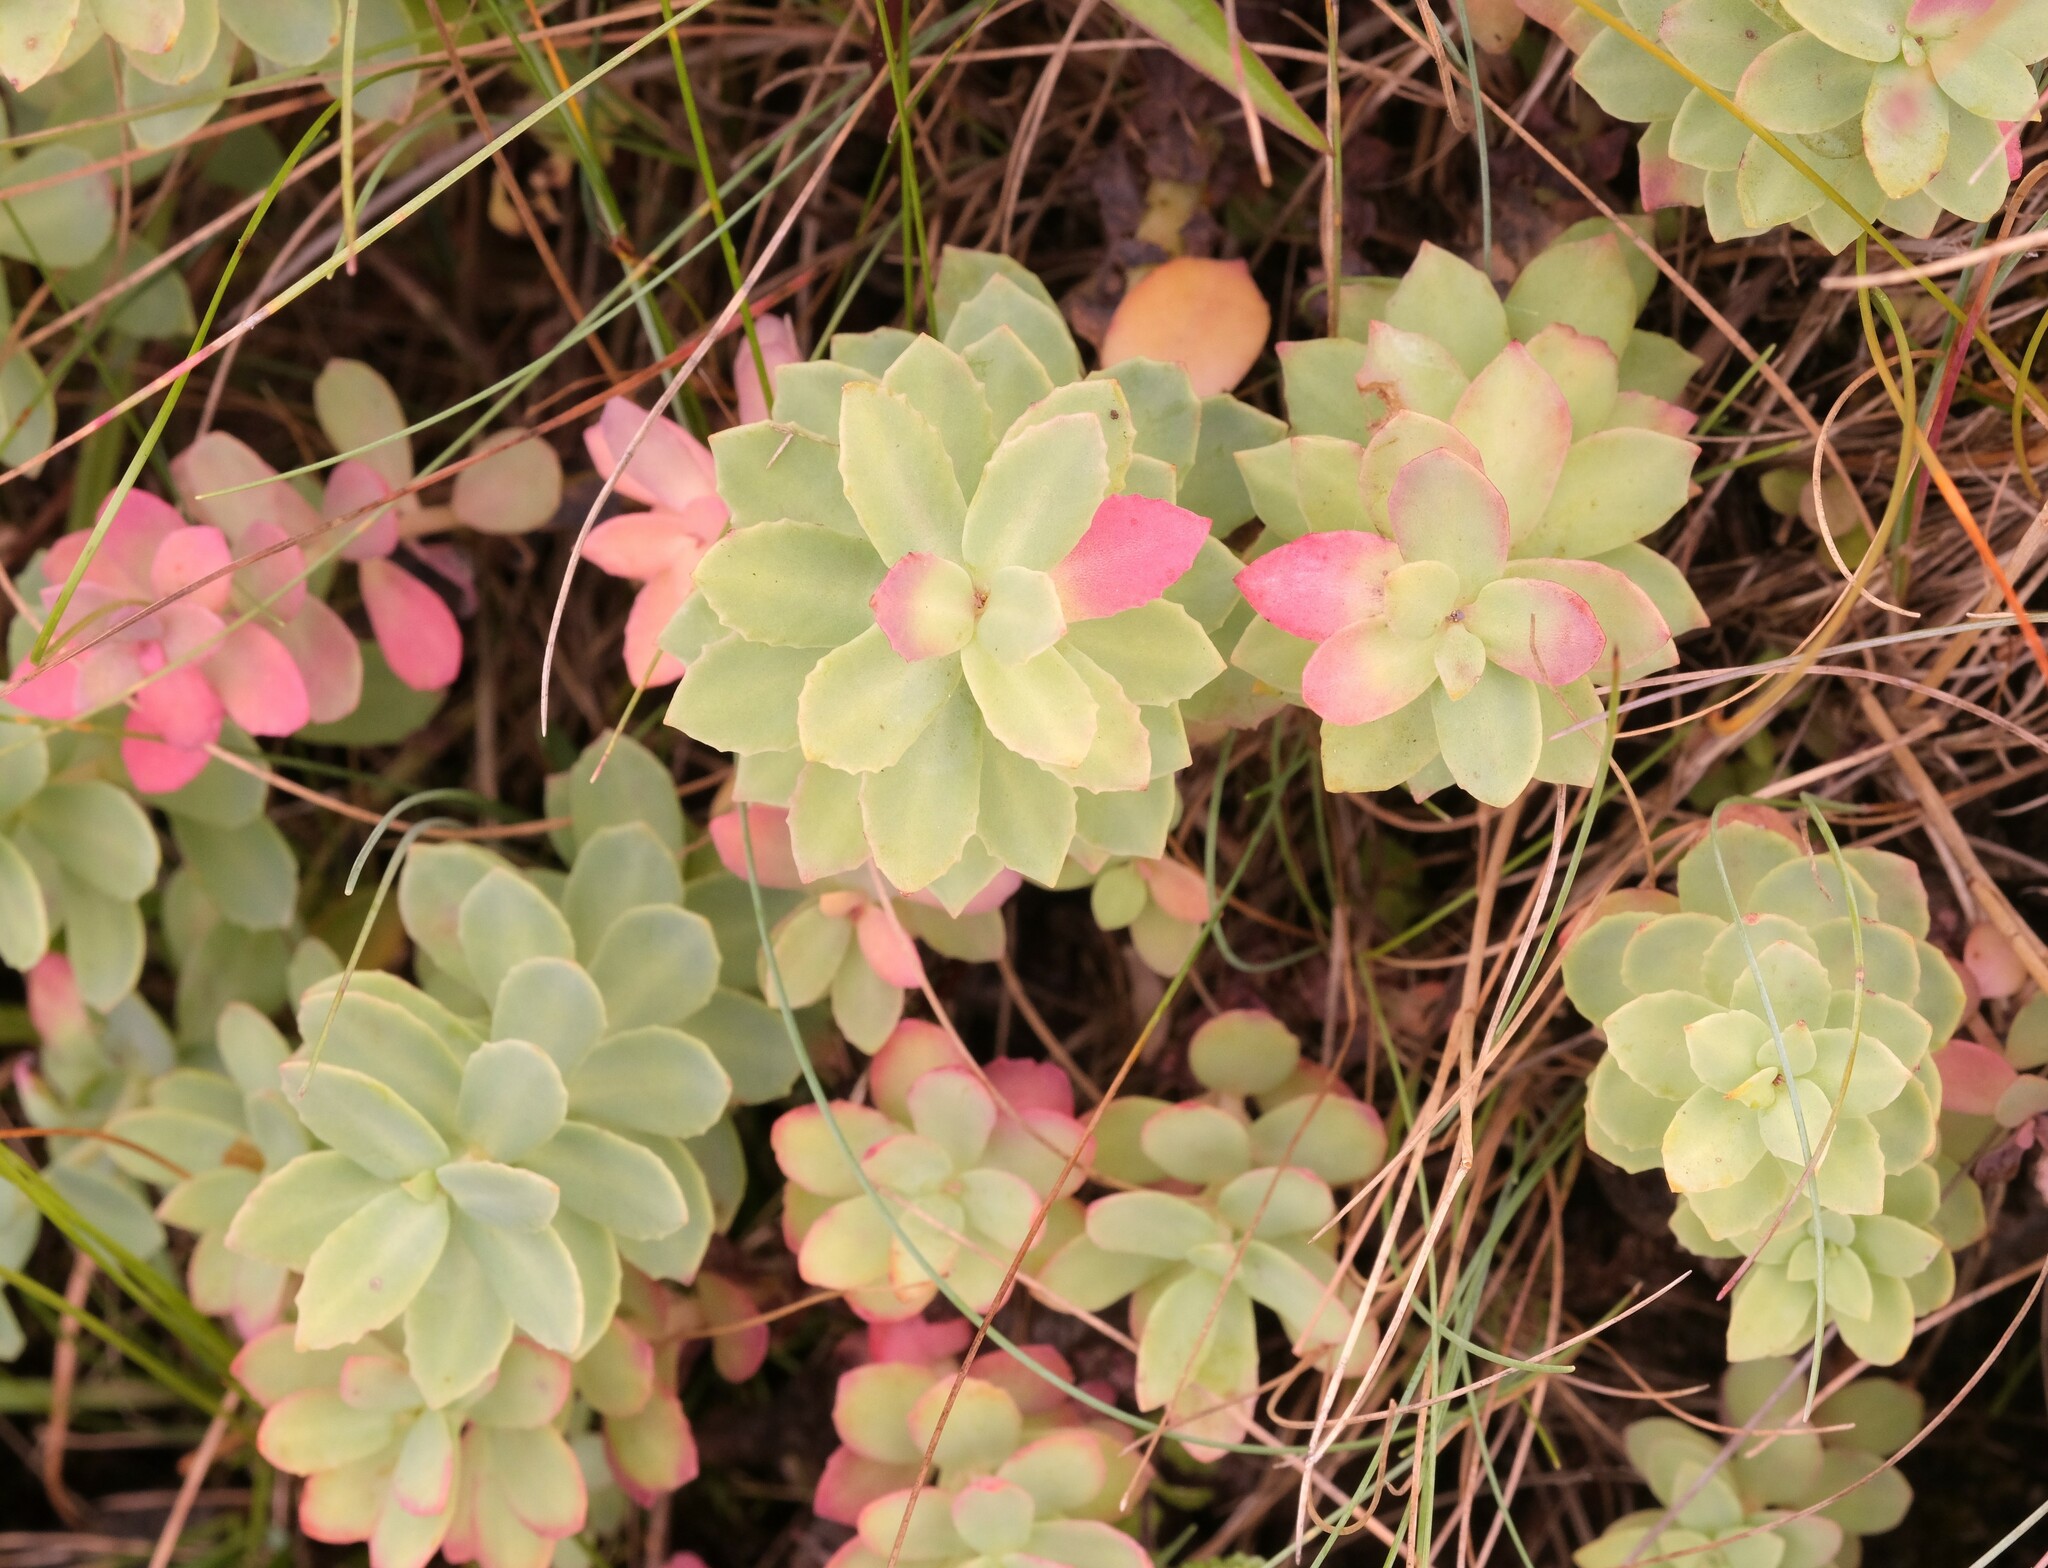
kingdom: Plantae
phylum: Tracheophyta
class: Magnoliopsida
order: Saxifragales
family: Crassulaceae
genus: Rhodiola
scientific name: Rhodiola rosea
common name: Roseroot
